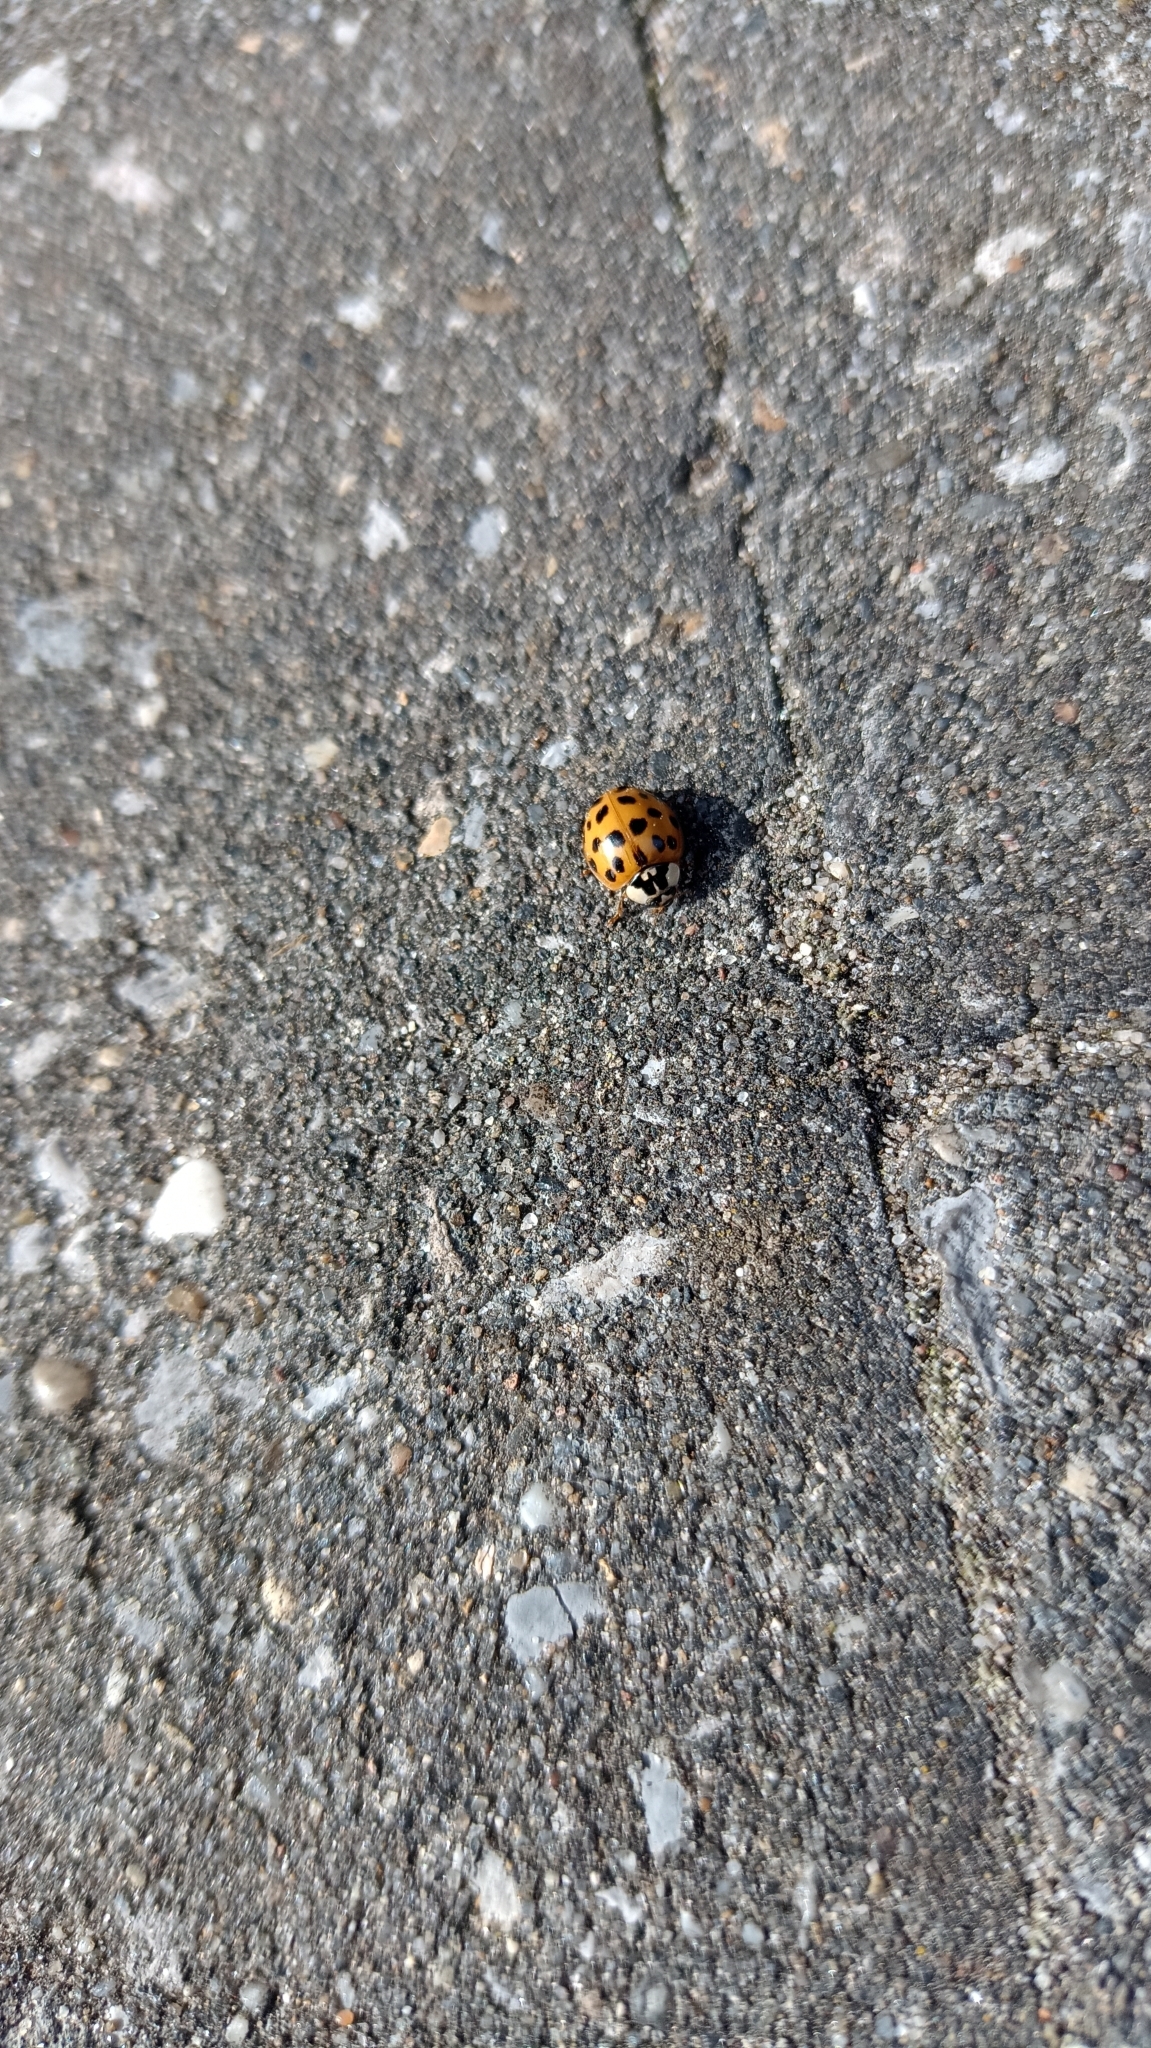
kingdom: Animalia
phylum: Arthropoda
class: Insecta
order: Coleoptera
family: Coccinellidae
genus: Harmonia
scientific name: Harmonia axyridis
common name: Harlequin ladybird
